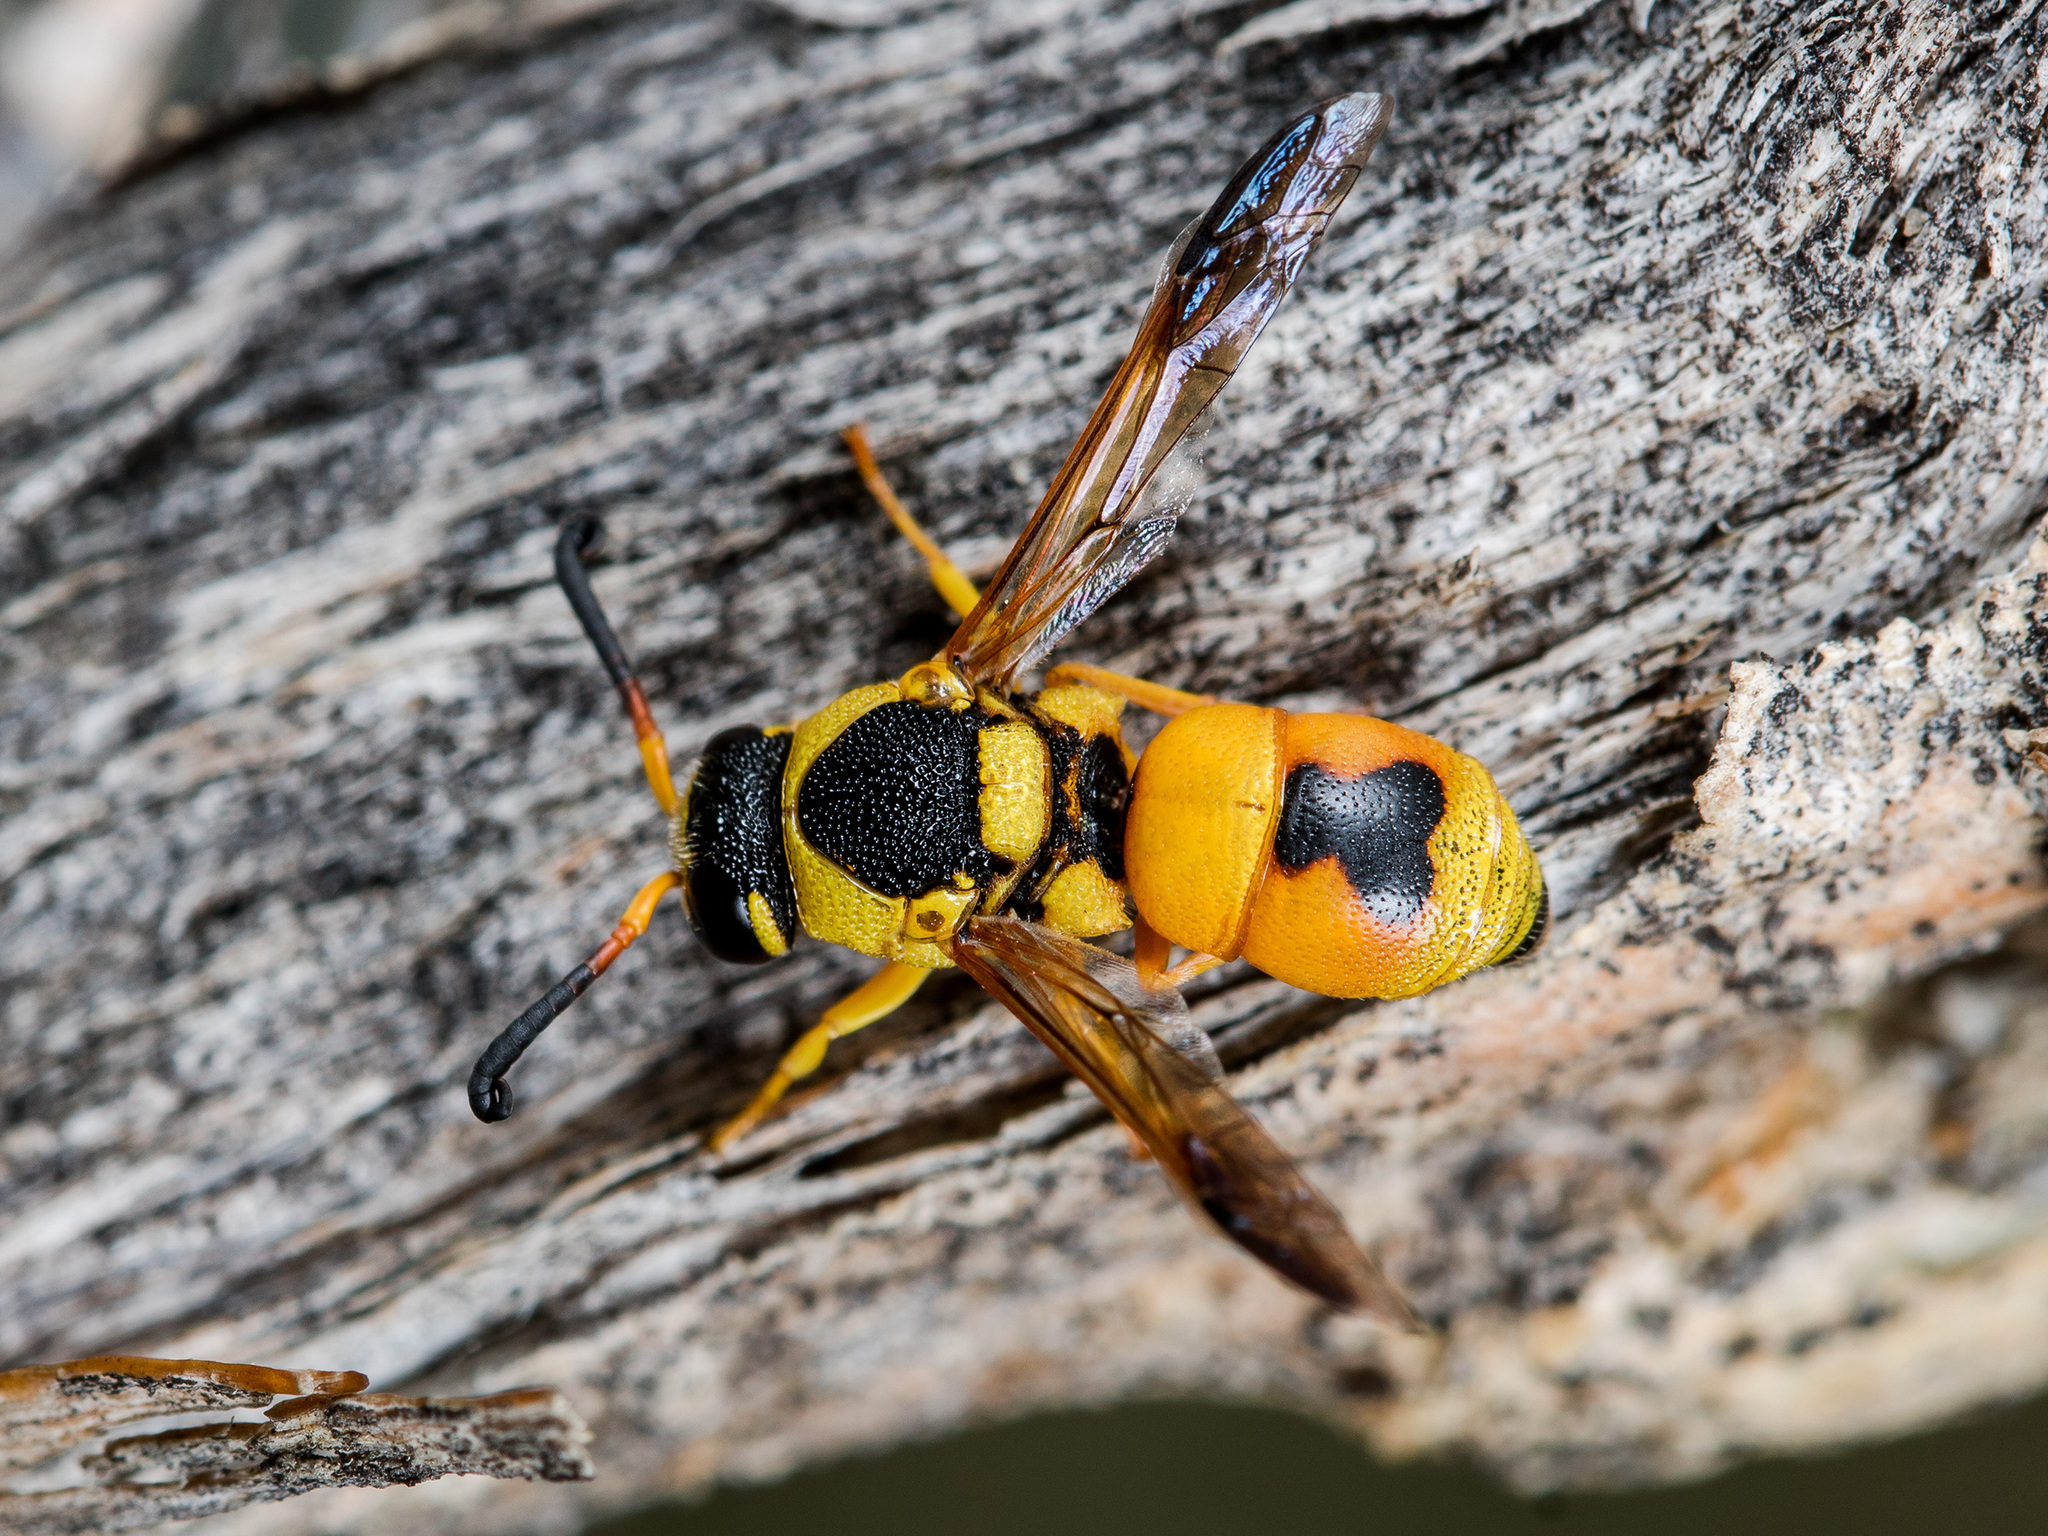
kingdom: Animalia
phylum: Arthropoda
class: Insecta
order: Hymenoptera
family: Eumenidae
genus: Euodynerus
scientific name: Euodynerus caspicus
